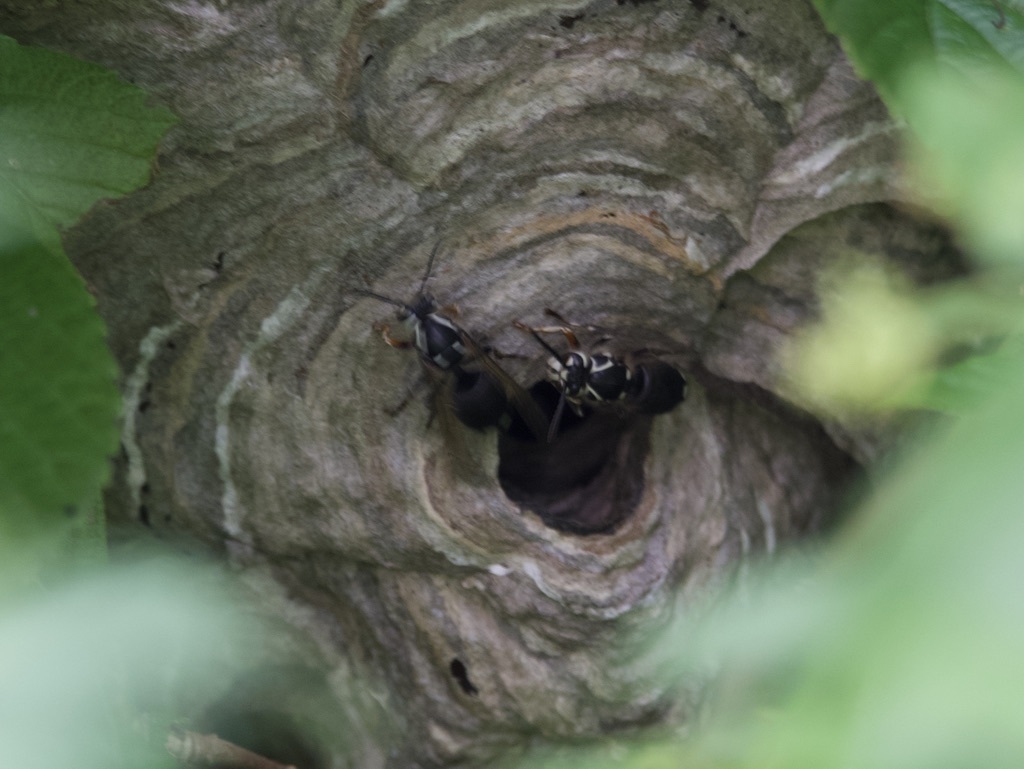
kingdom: Animalia
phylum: Arthropoda
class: Insecta
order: Hymenoptera
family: Vespidae
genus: Dolichovespula
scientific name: Dolichovespula maculata
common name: Bald-faced hornet
